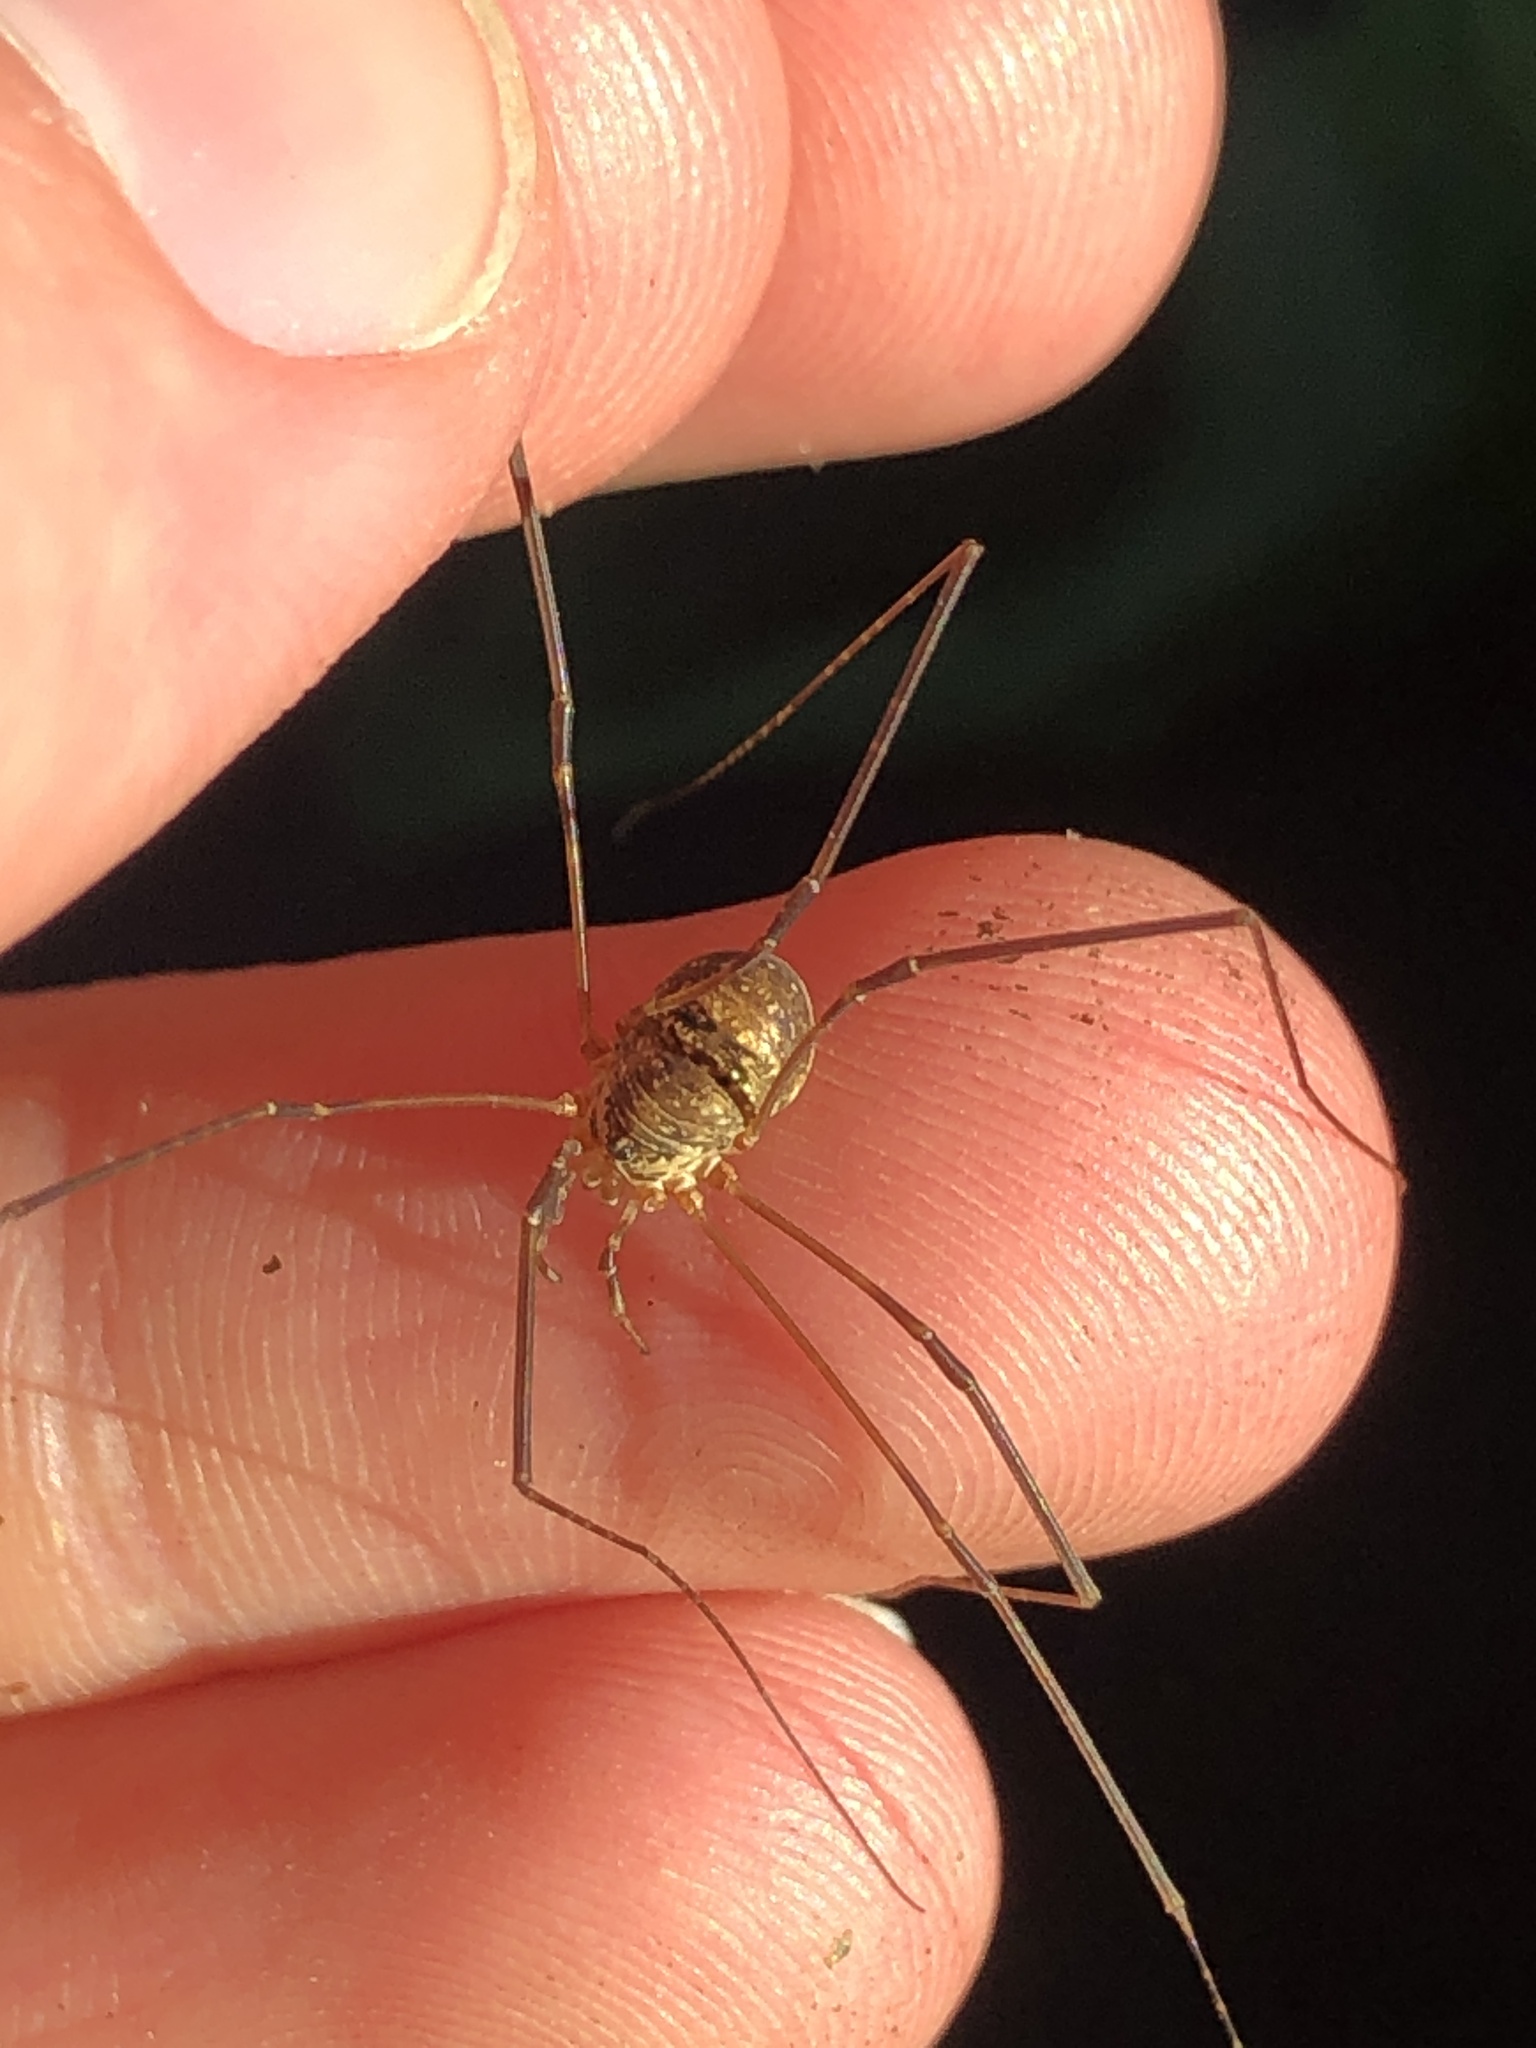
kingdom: Animalia
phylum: Arthropoda
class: Arachnida
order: Opiliones
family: Phalangiidae
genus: Amilenus
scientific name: Amilenus aurantiacus
